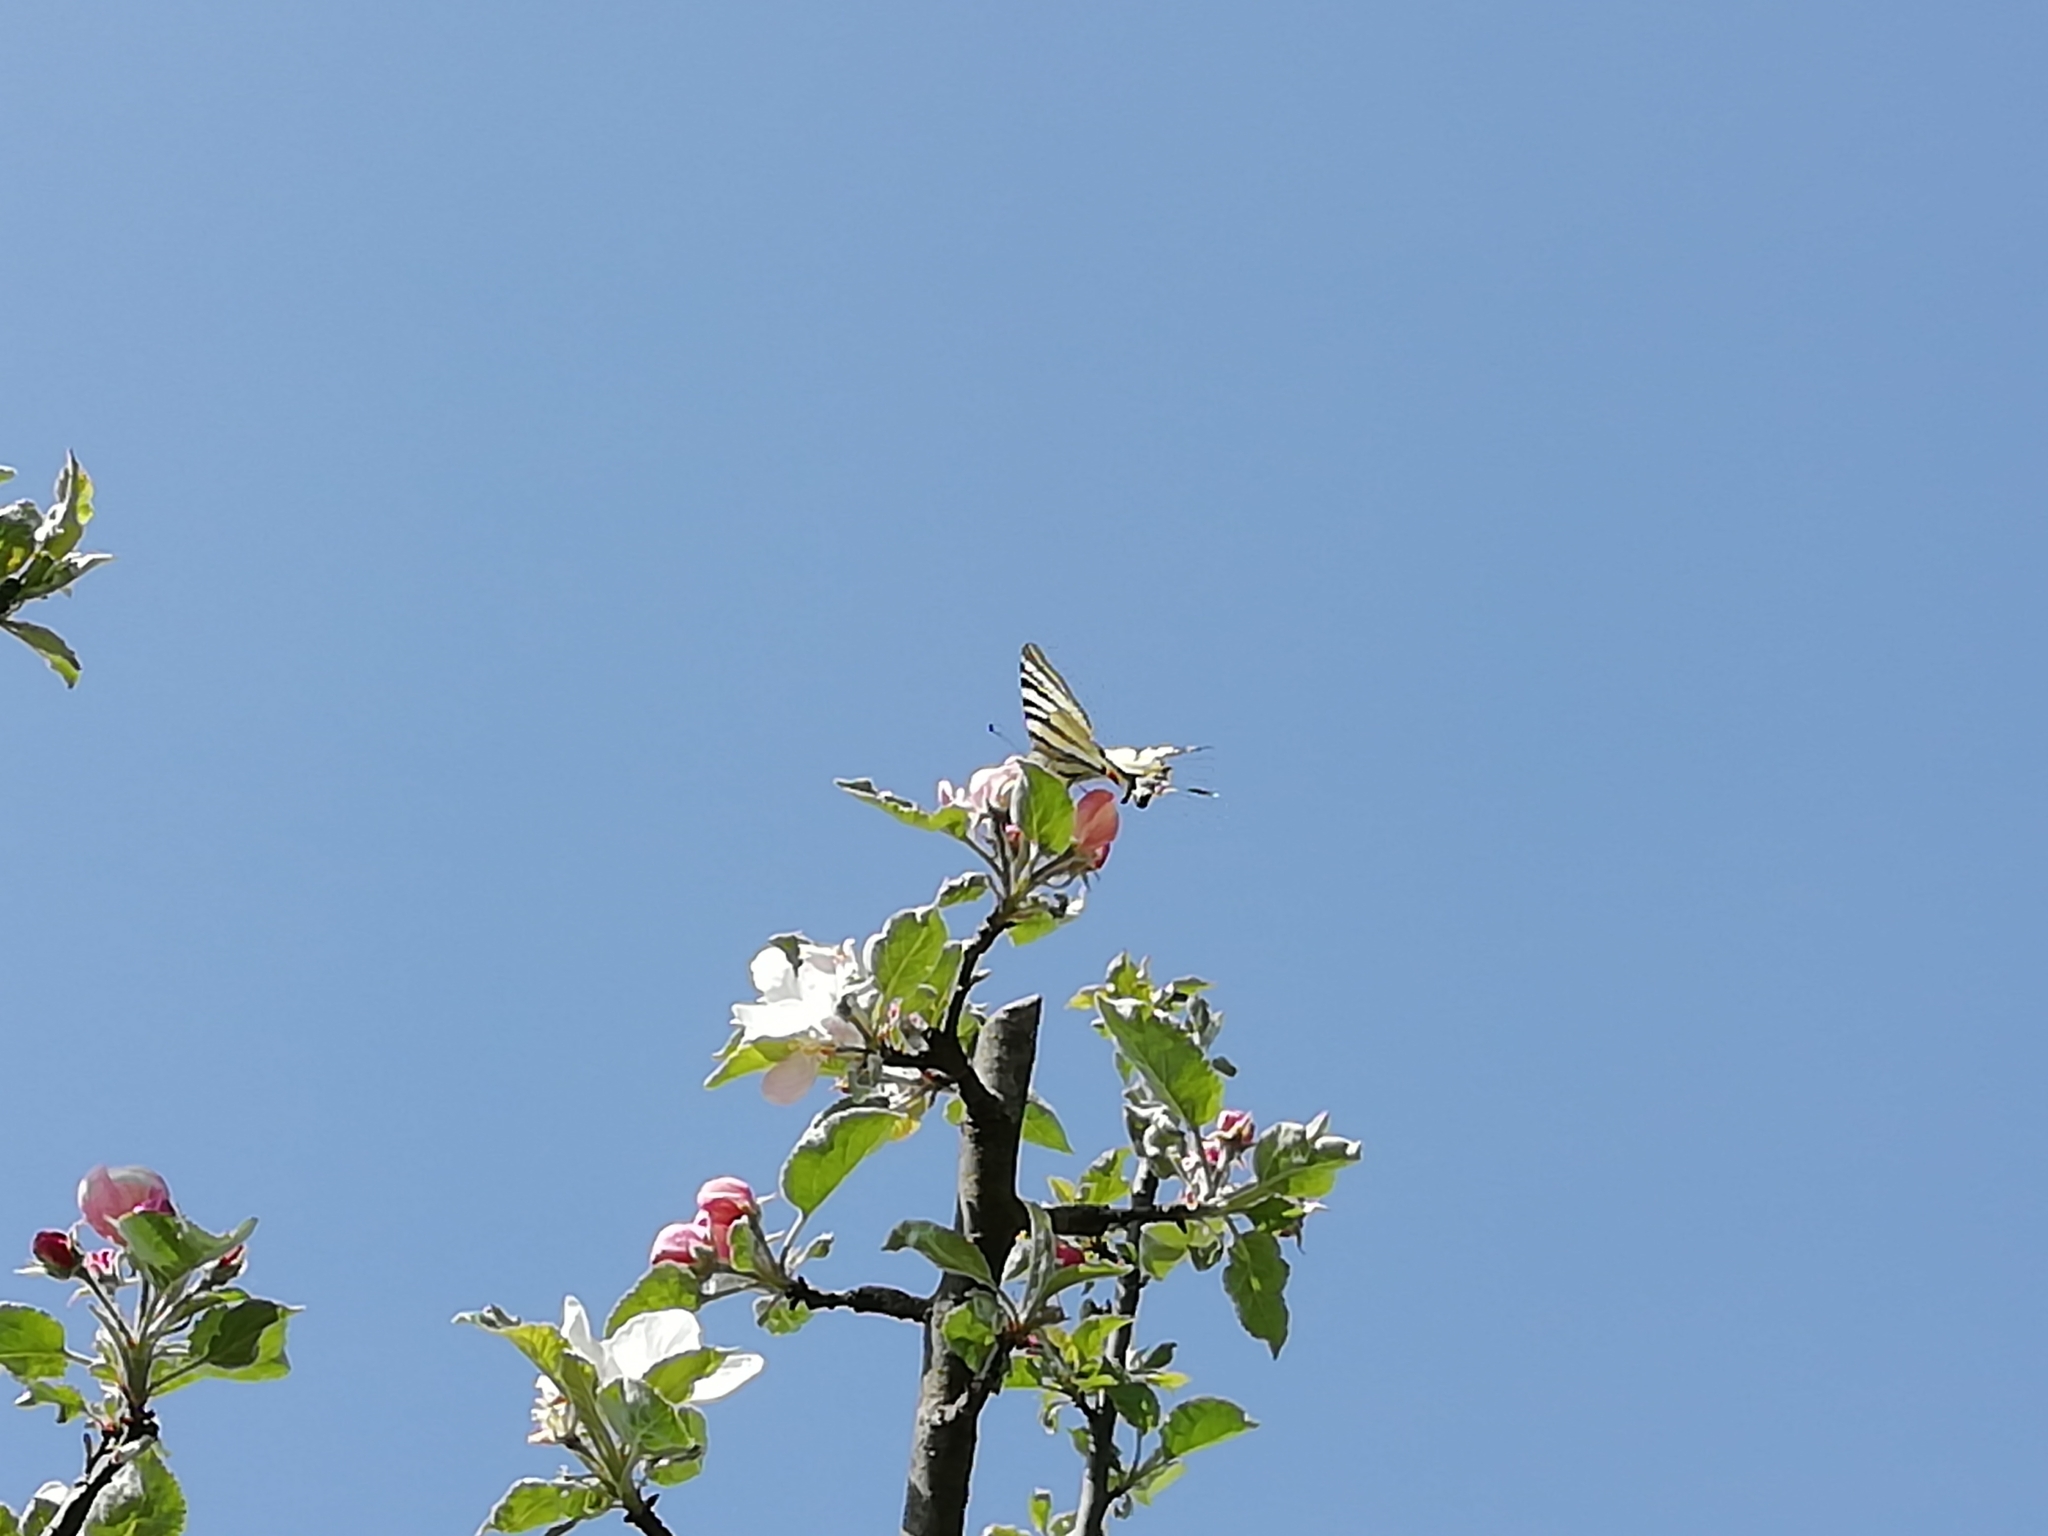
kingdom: Animalia
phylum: Arthropoda
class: Insecta
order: Lepidoptera
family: Papilionidae
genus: Iphiclides
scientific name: Iphiclides podalirius
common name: Scarce swallowtail
